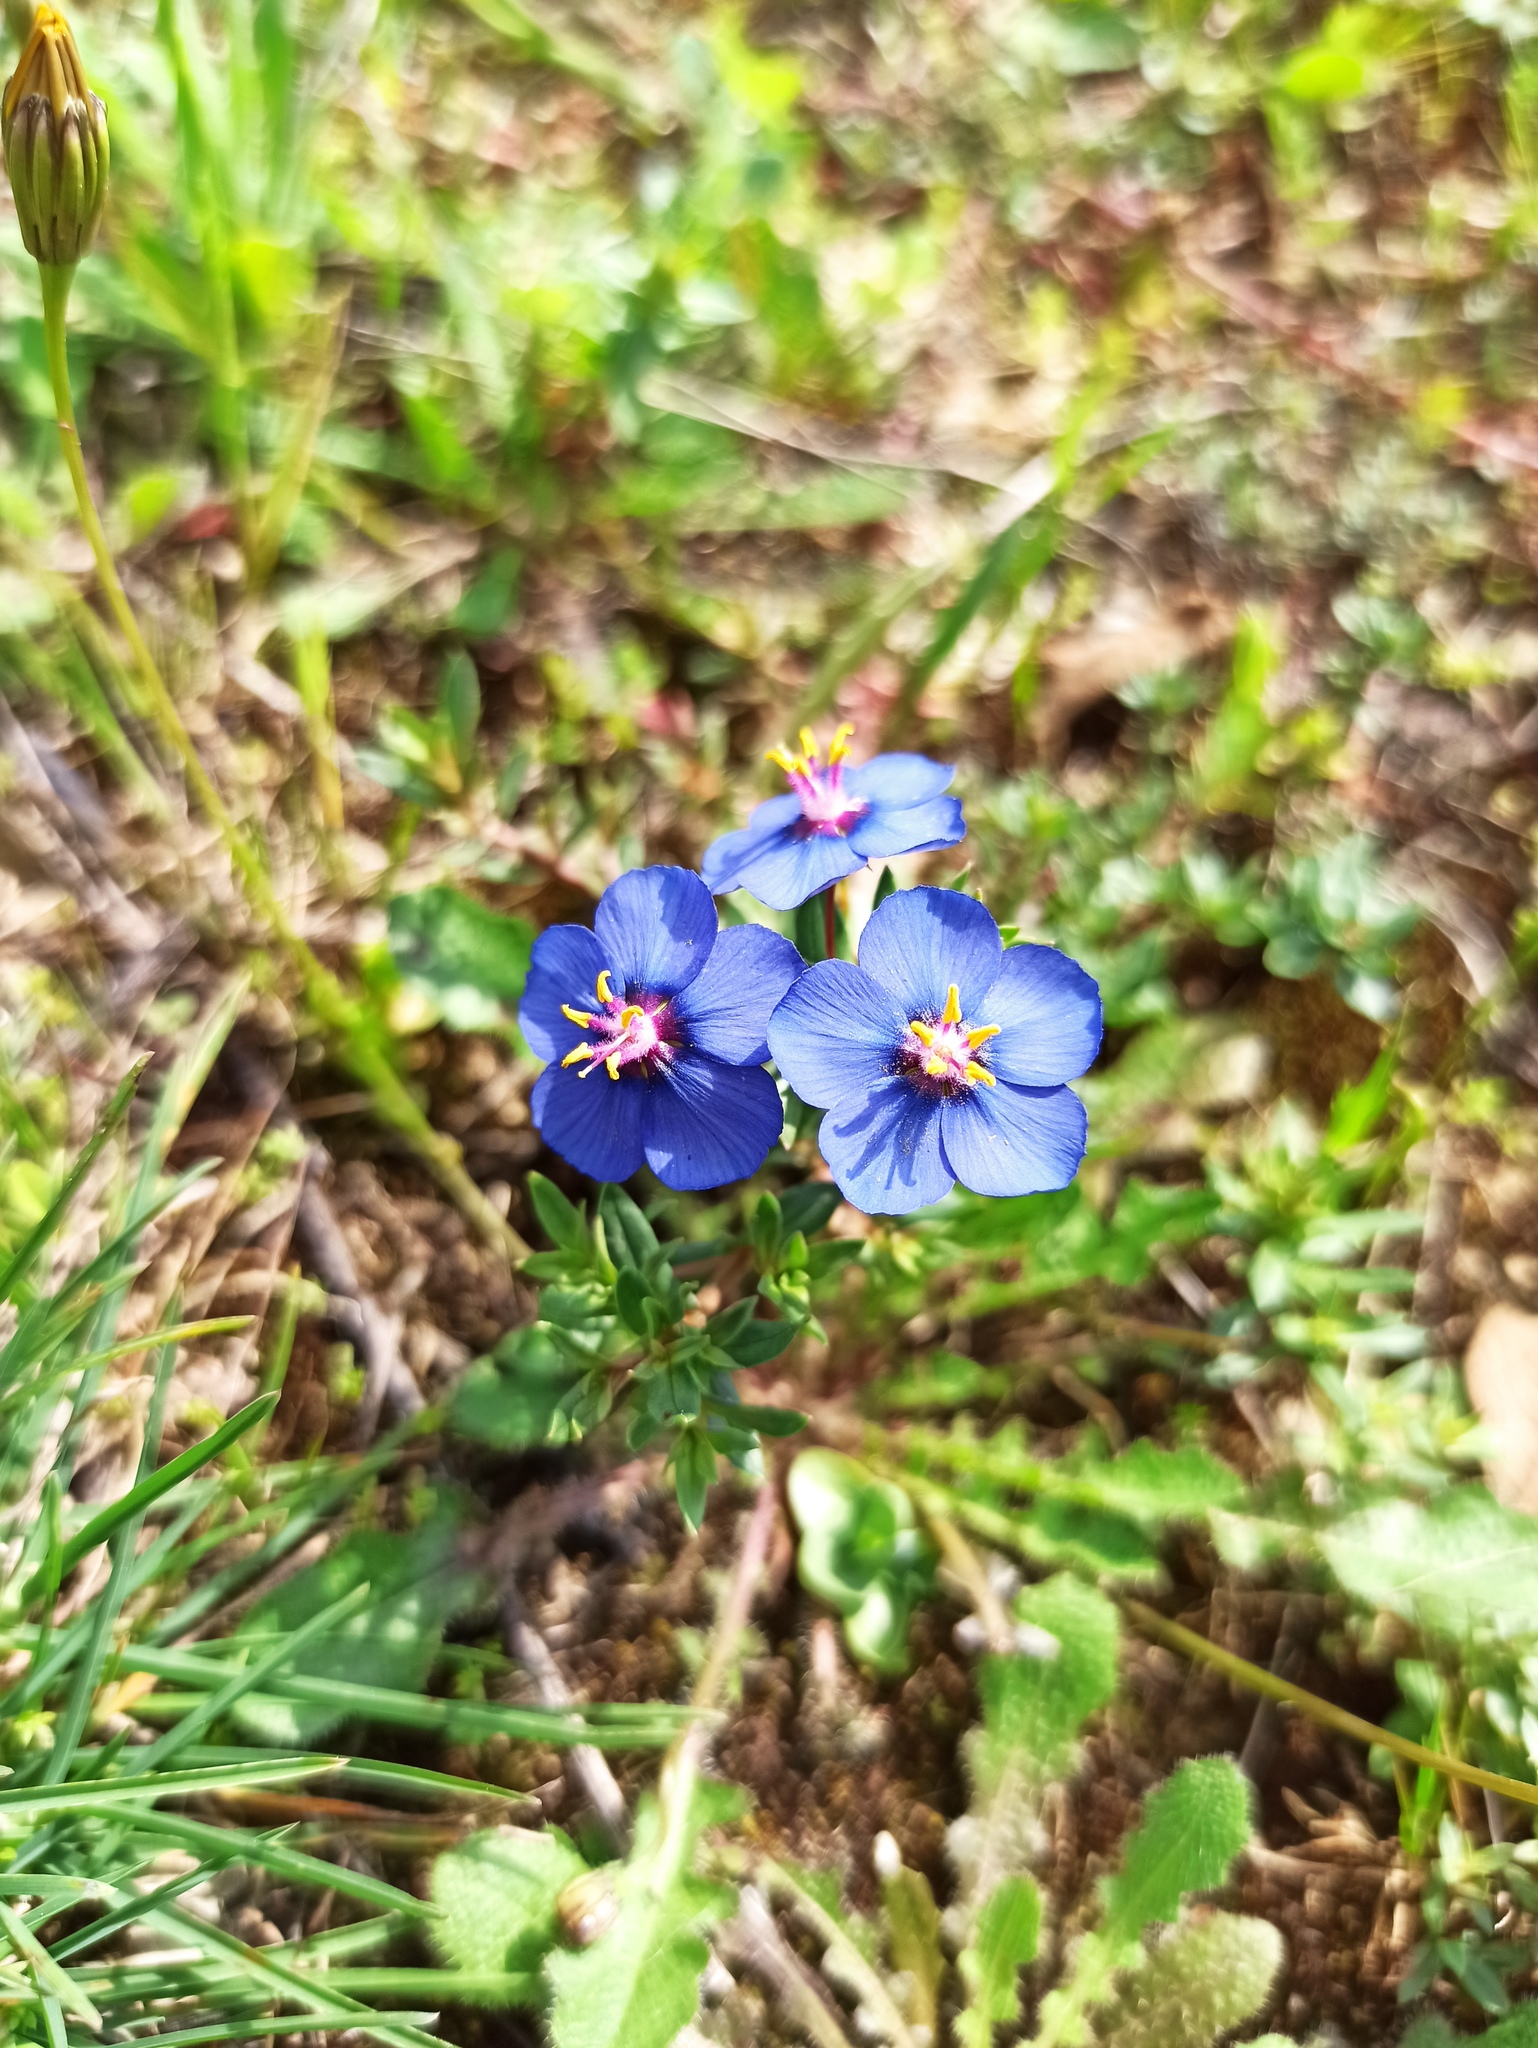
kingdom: Plantae
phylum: Tracheophyta
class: Magnoliopsida
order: Ericales
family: Primulaceae
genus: Lysimachia
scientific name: Lysimachia monelli
